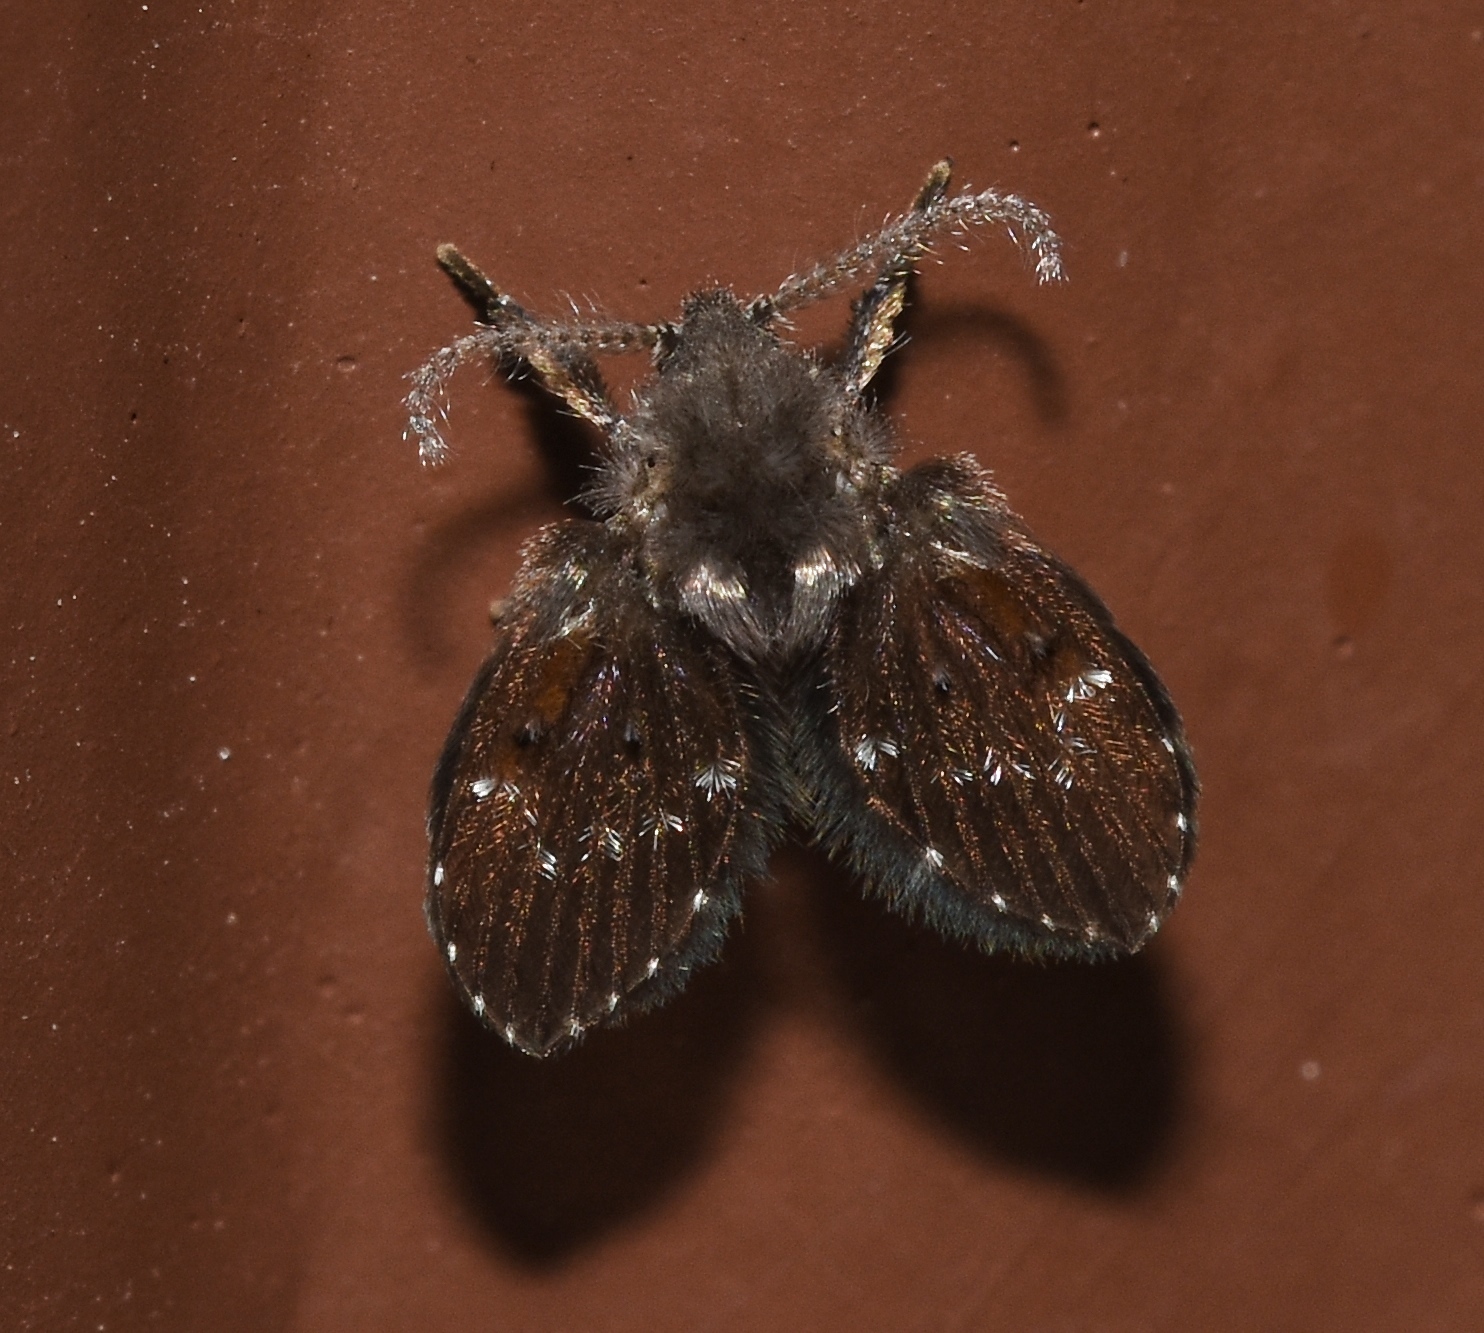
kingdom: Animalia
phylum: Arthropoda
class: Insecta
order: Diptera
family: Psychodidae
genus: Clogmia
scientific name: Clogmia albipunctatus
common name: White-spotted moth fly
